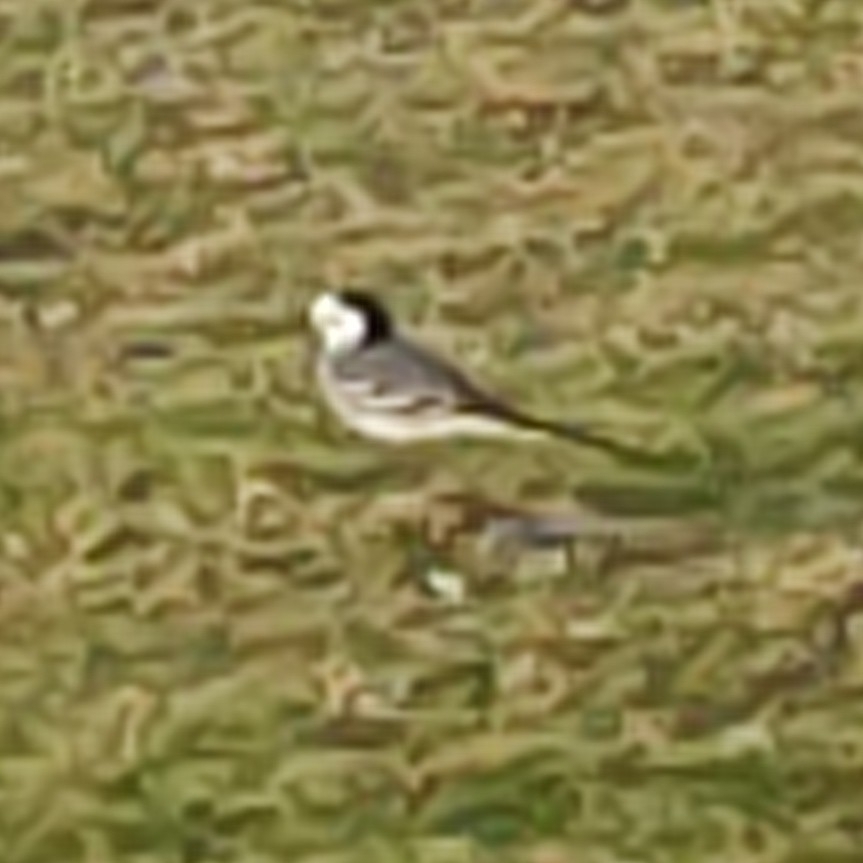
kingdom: Animalia
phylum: Chordata
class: Aves
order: Passeriformes
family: Motacillidae
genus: Motacilla
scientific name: Motacilla alba
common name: White wagtail
